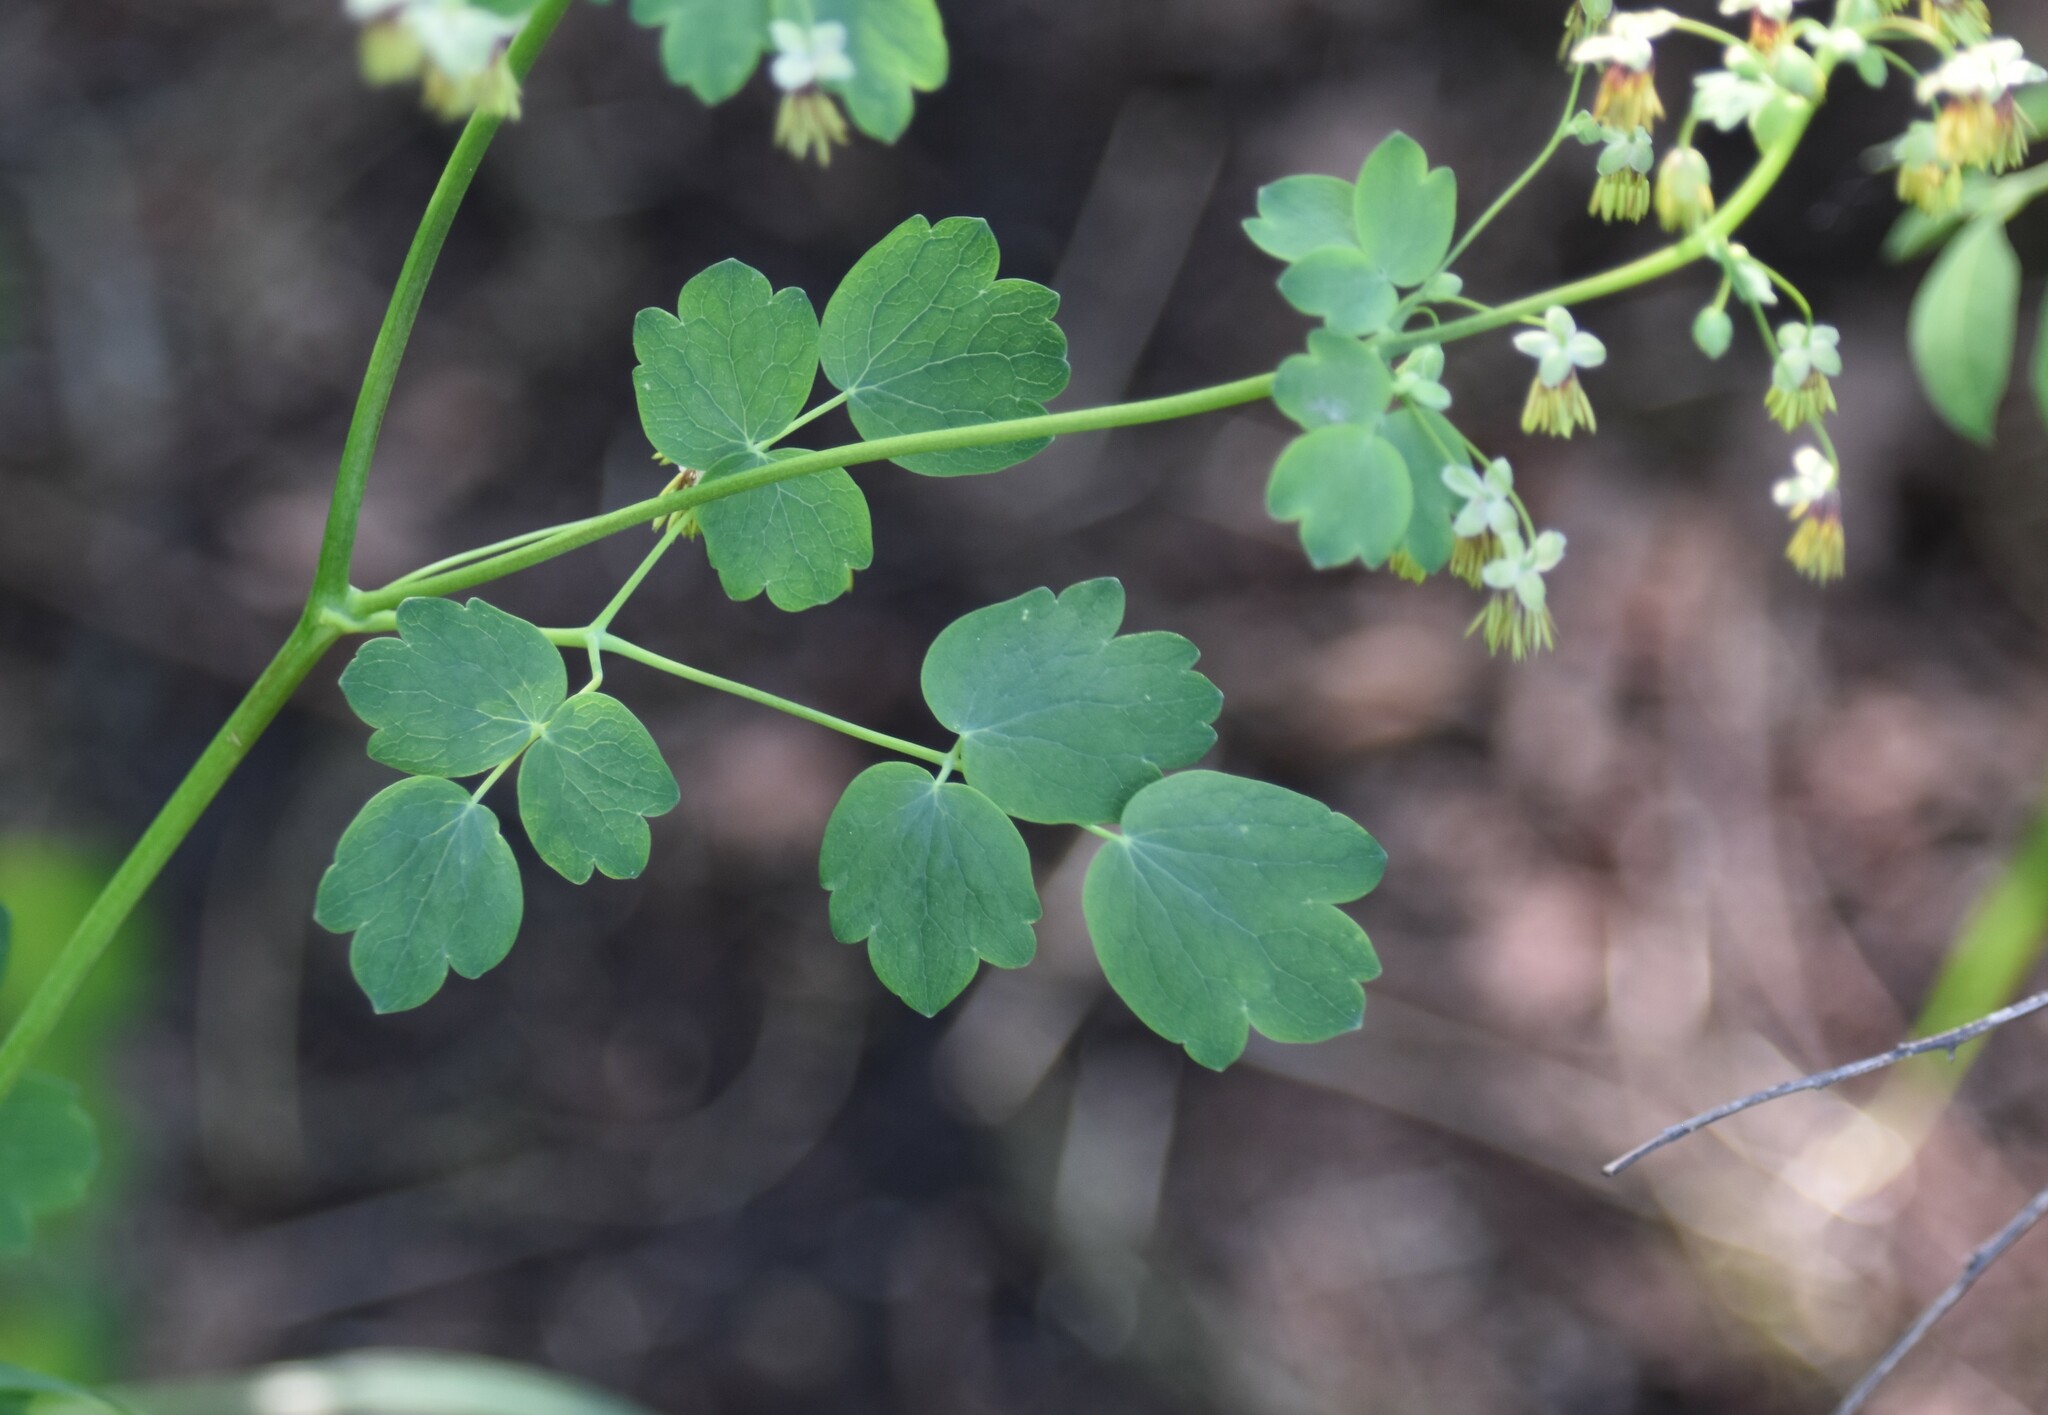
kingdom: Plantae
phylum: Tracheophyta
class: Magnoliopsida
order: Ranunculales
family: Ranunculaceae
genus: Thalictrum
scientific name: Thalictrum venulosum
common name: Early meadow-rue
